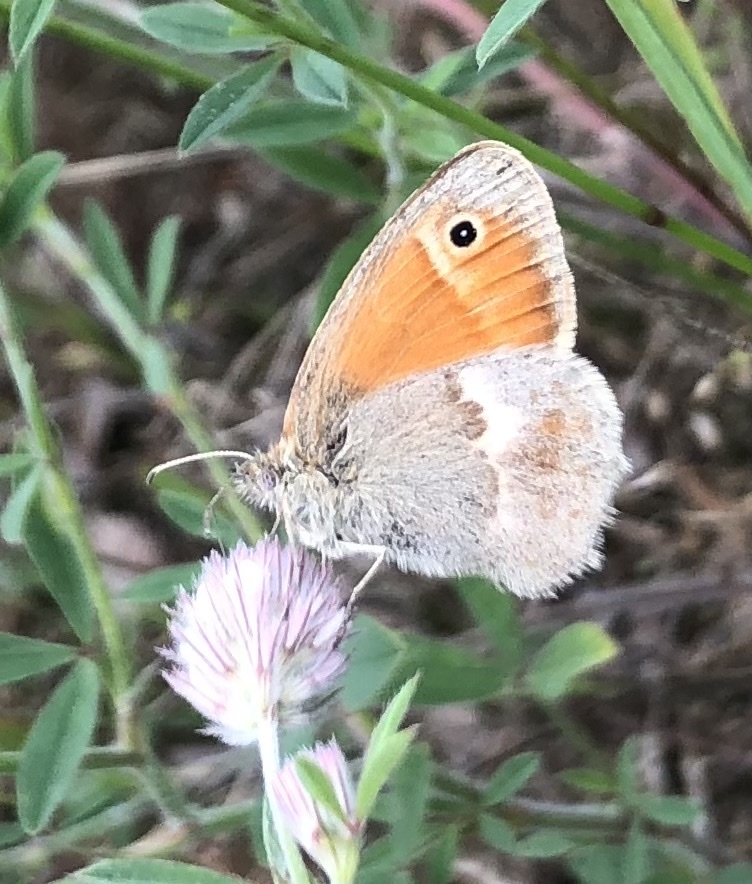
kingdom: Animalia
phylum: Arthropoda
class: Insecta
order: Lepidoptera
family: Nymphalidae
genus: Coenonympha
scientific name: Coenonympha pamphilus
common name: Small heath
